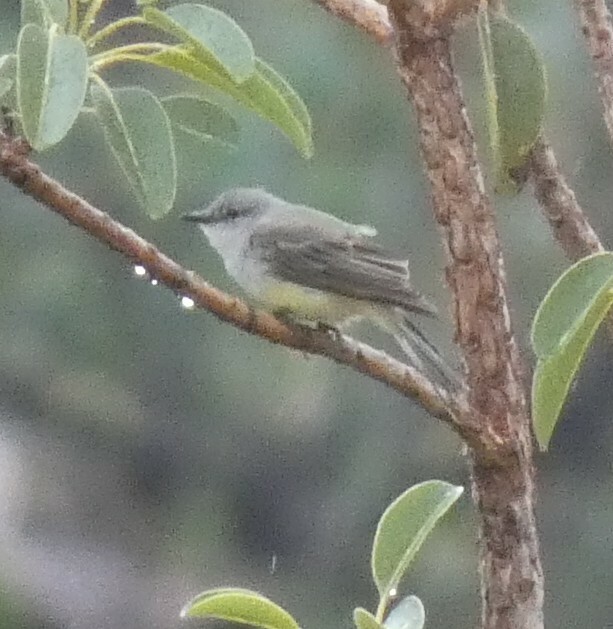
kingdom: Animalia
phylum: Chordata
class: Aves
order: Passeriformes
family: Tyrannidae
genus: Suiriri
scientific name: Suiriri suiriri
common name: Suiriri flycatcher
